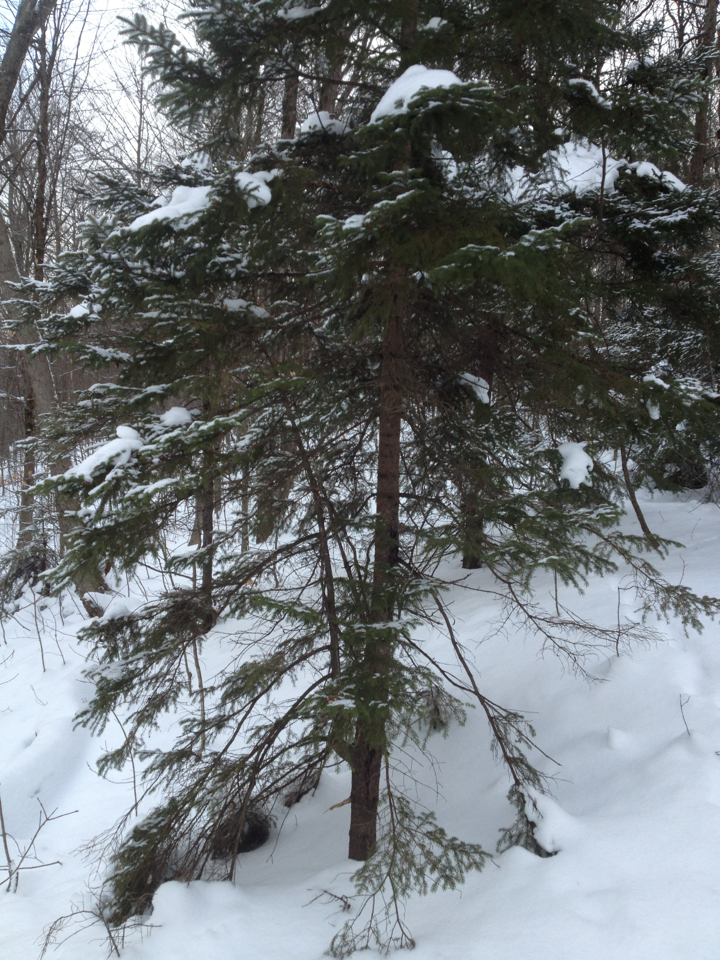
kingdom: Plantae
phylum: Tracheophyta
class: Pinopsida
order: Pinales
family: Pinaceae
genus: Picea
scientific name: Picea rubens
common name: Red spruce
